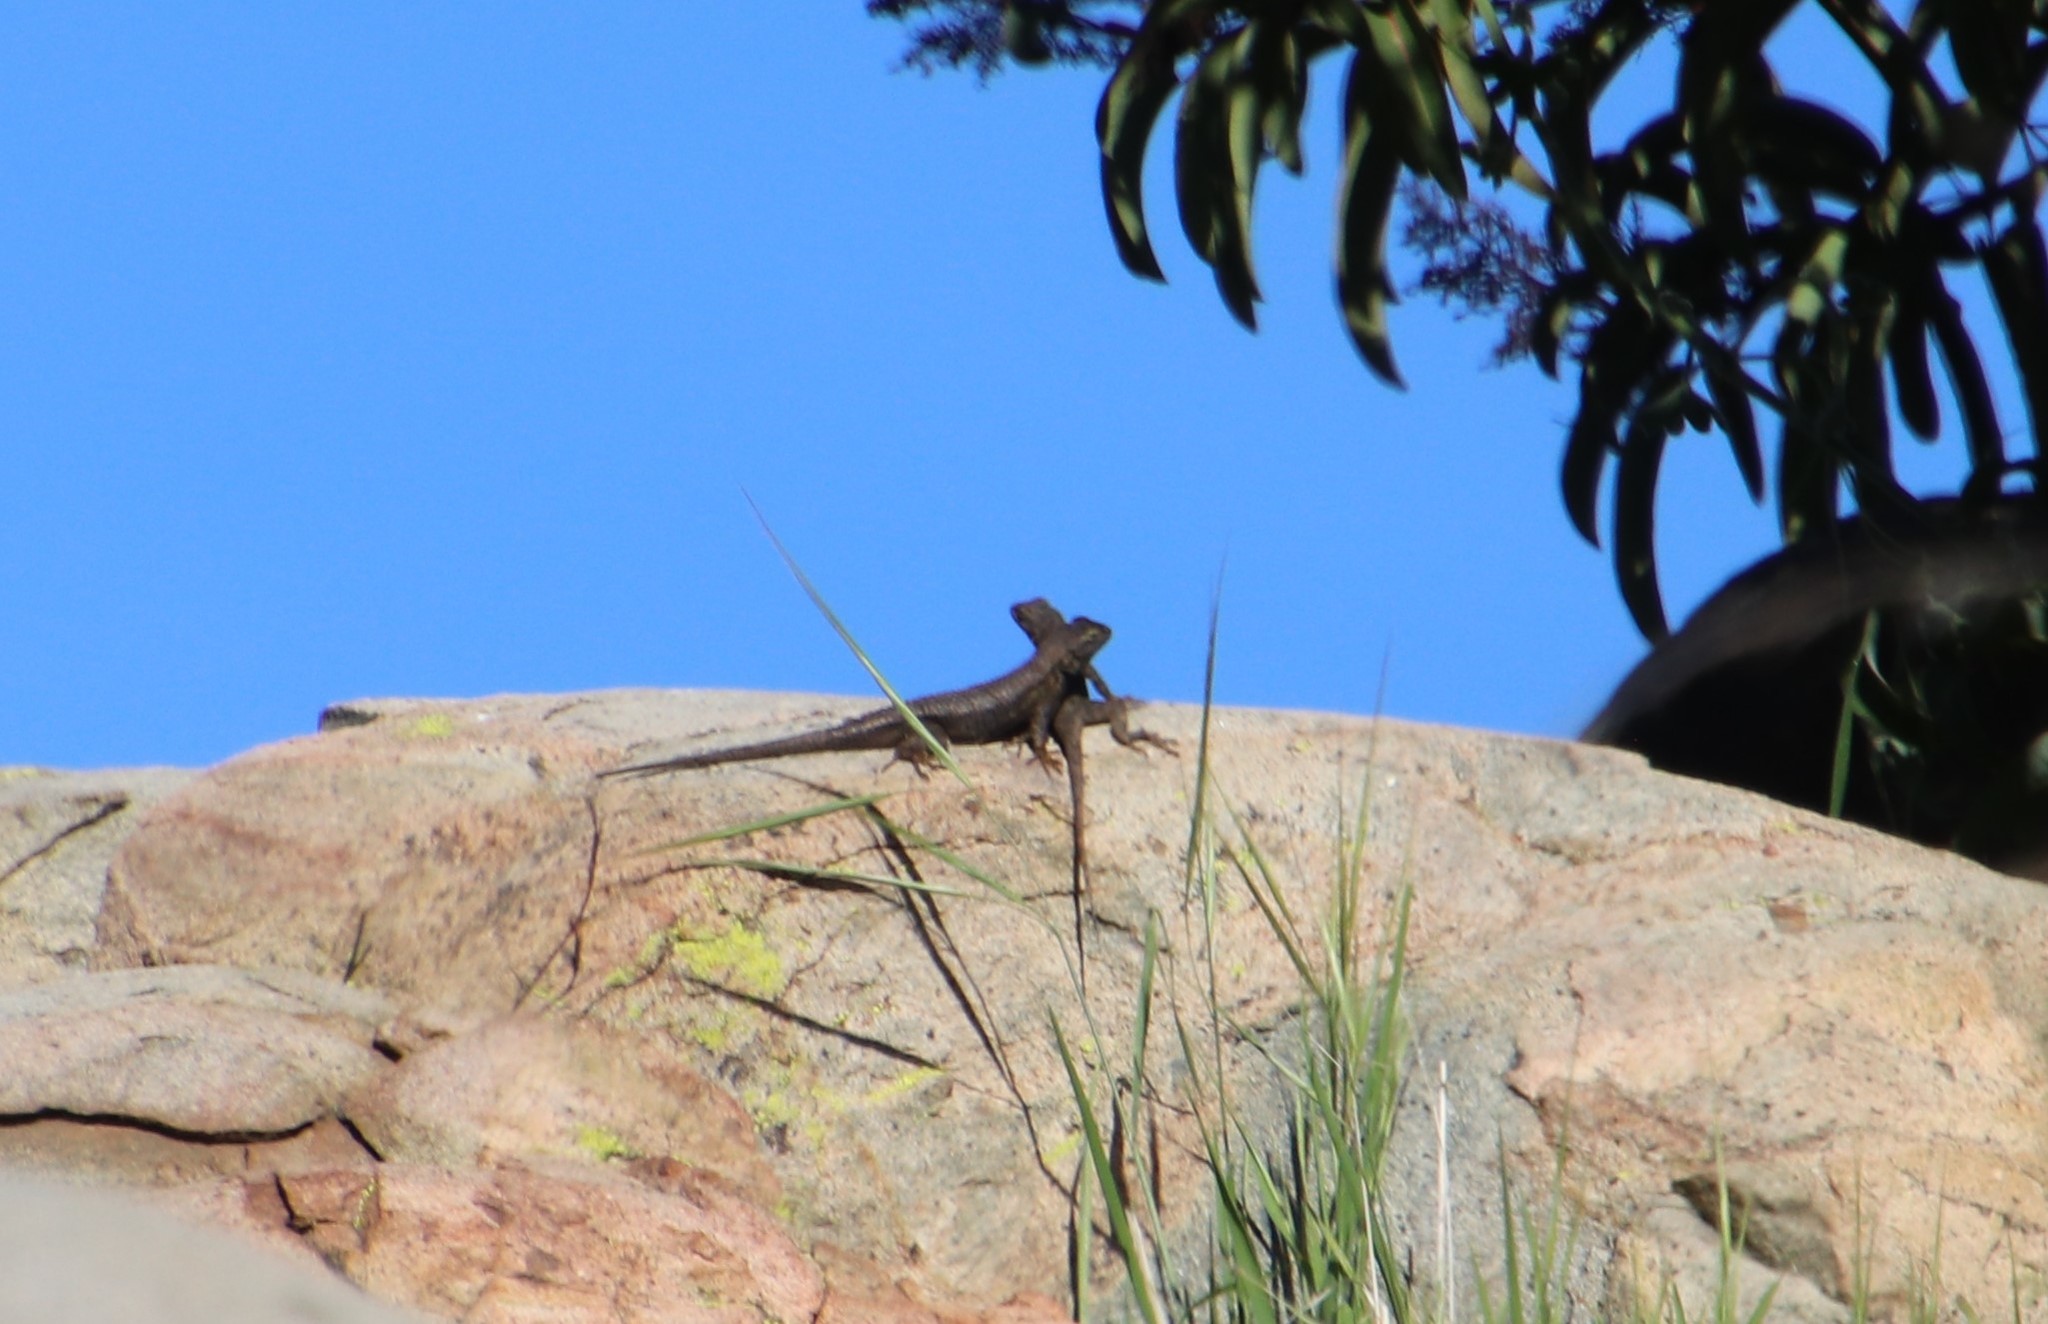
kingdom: Animalia
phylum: Chordata
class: Squamata
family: Phrynosomatidae
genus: Sceloporus
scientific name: Sceloporus occidentalis
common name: Western fence lizard
